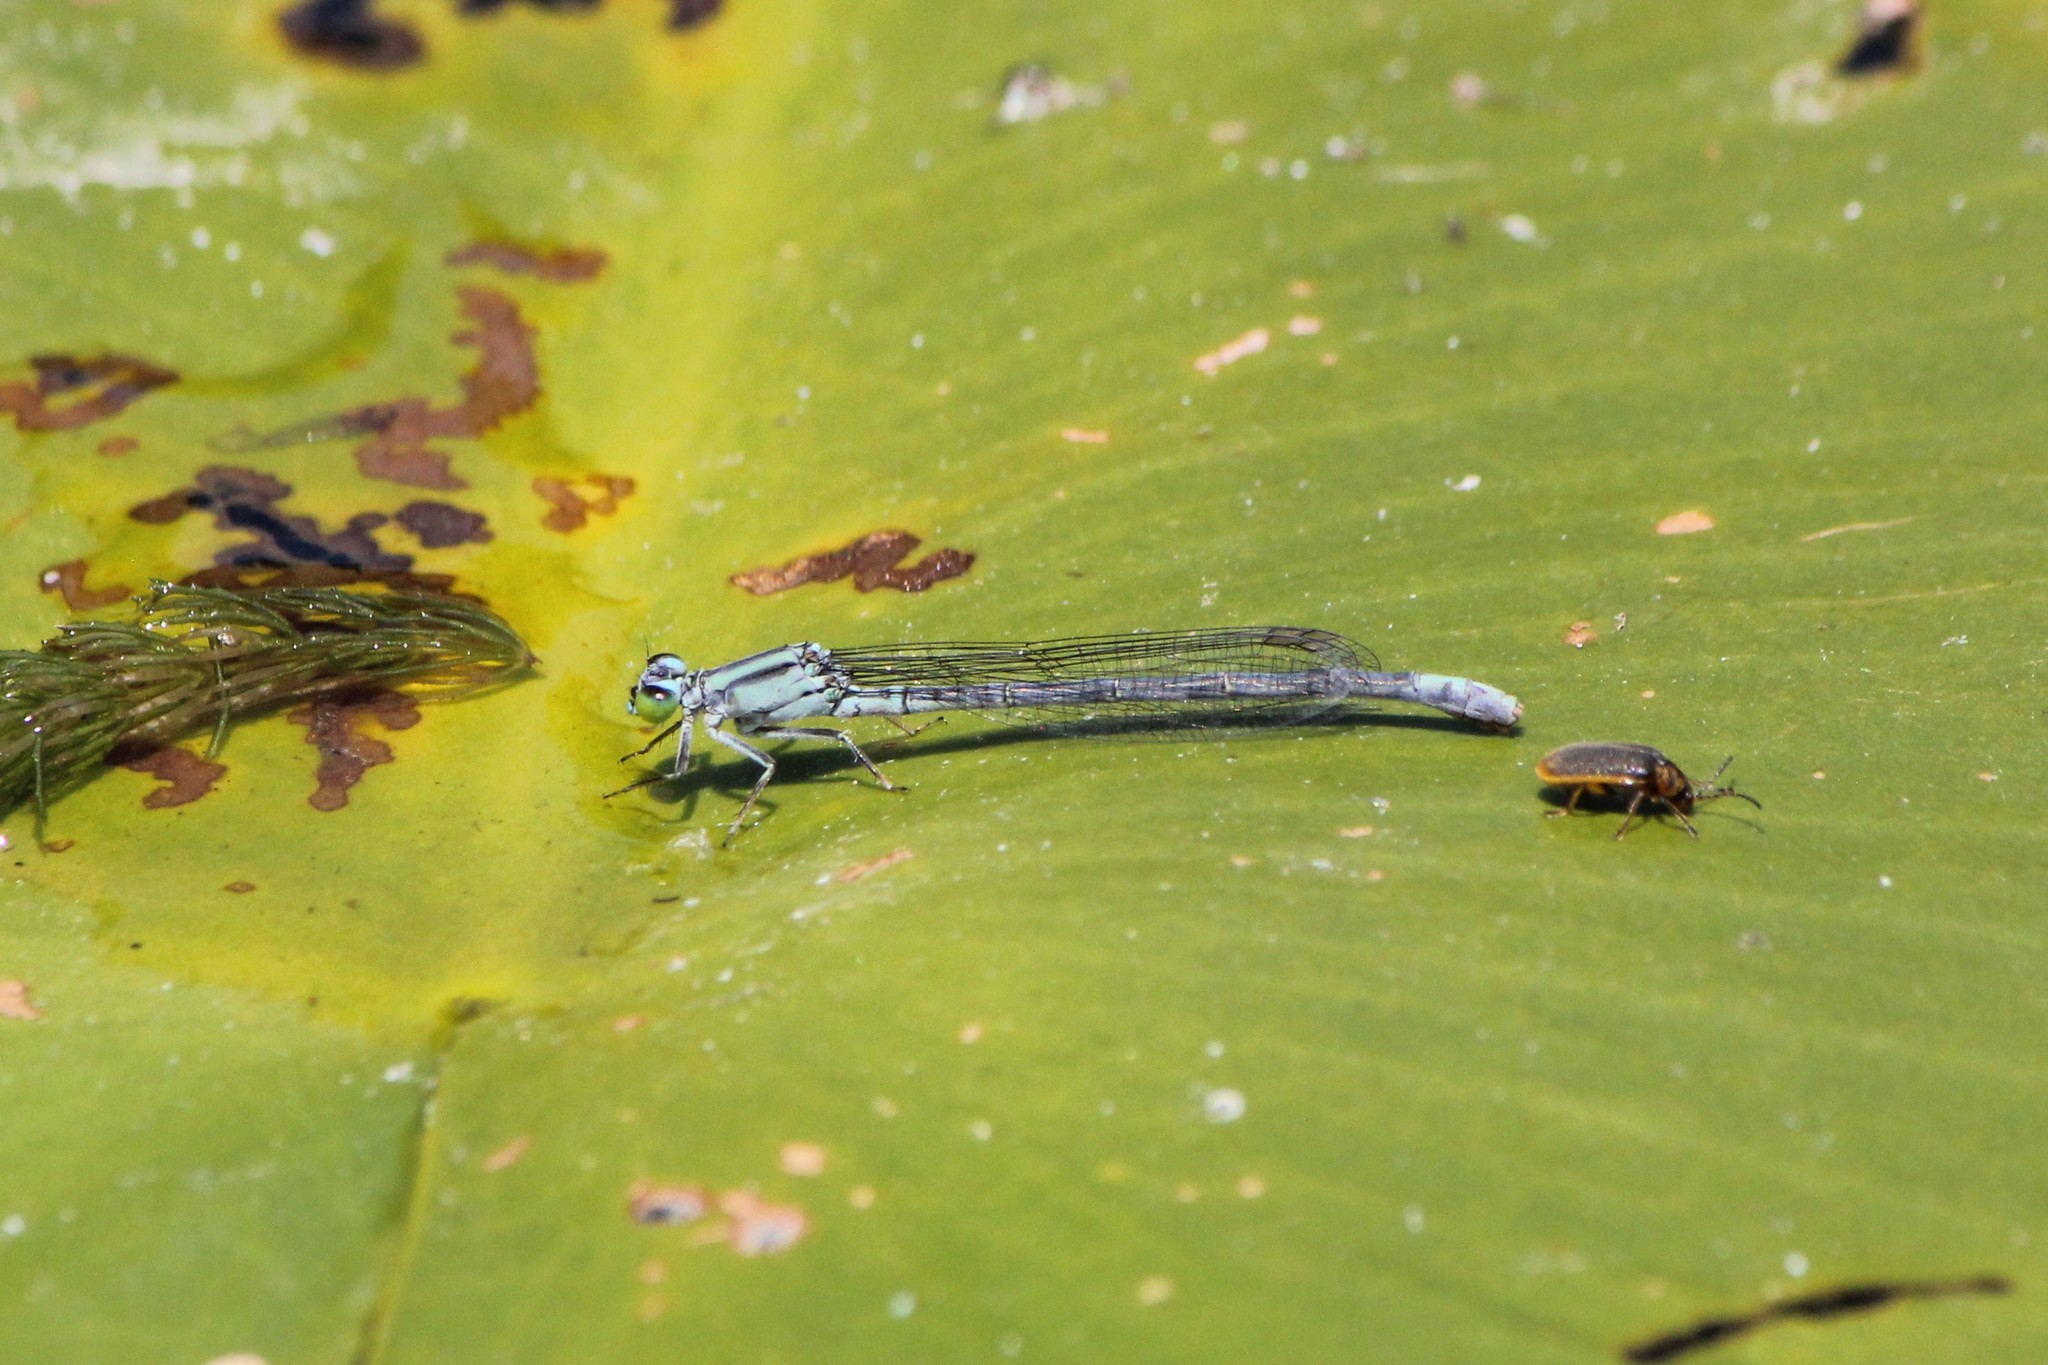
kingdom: Animalia
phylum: Arthropoda
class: Insecta
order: Odonata
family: Coenagrionidae
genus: Ischnura
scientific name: Ischnura kellicotti
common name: Lilypad forktail
